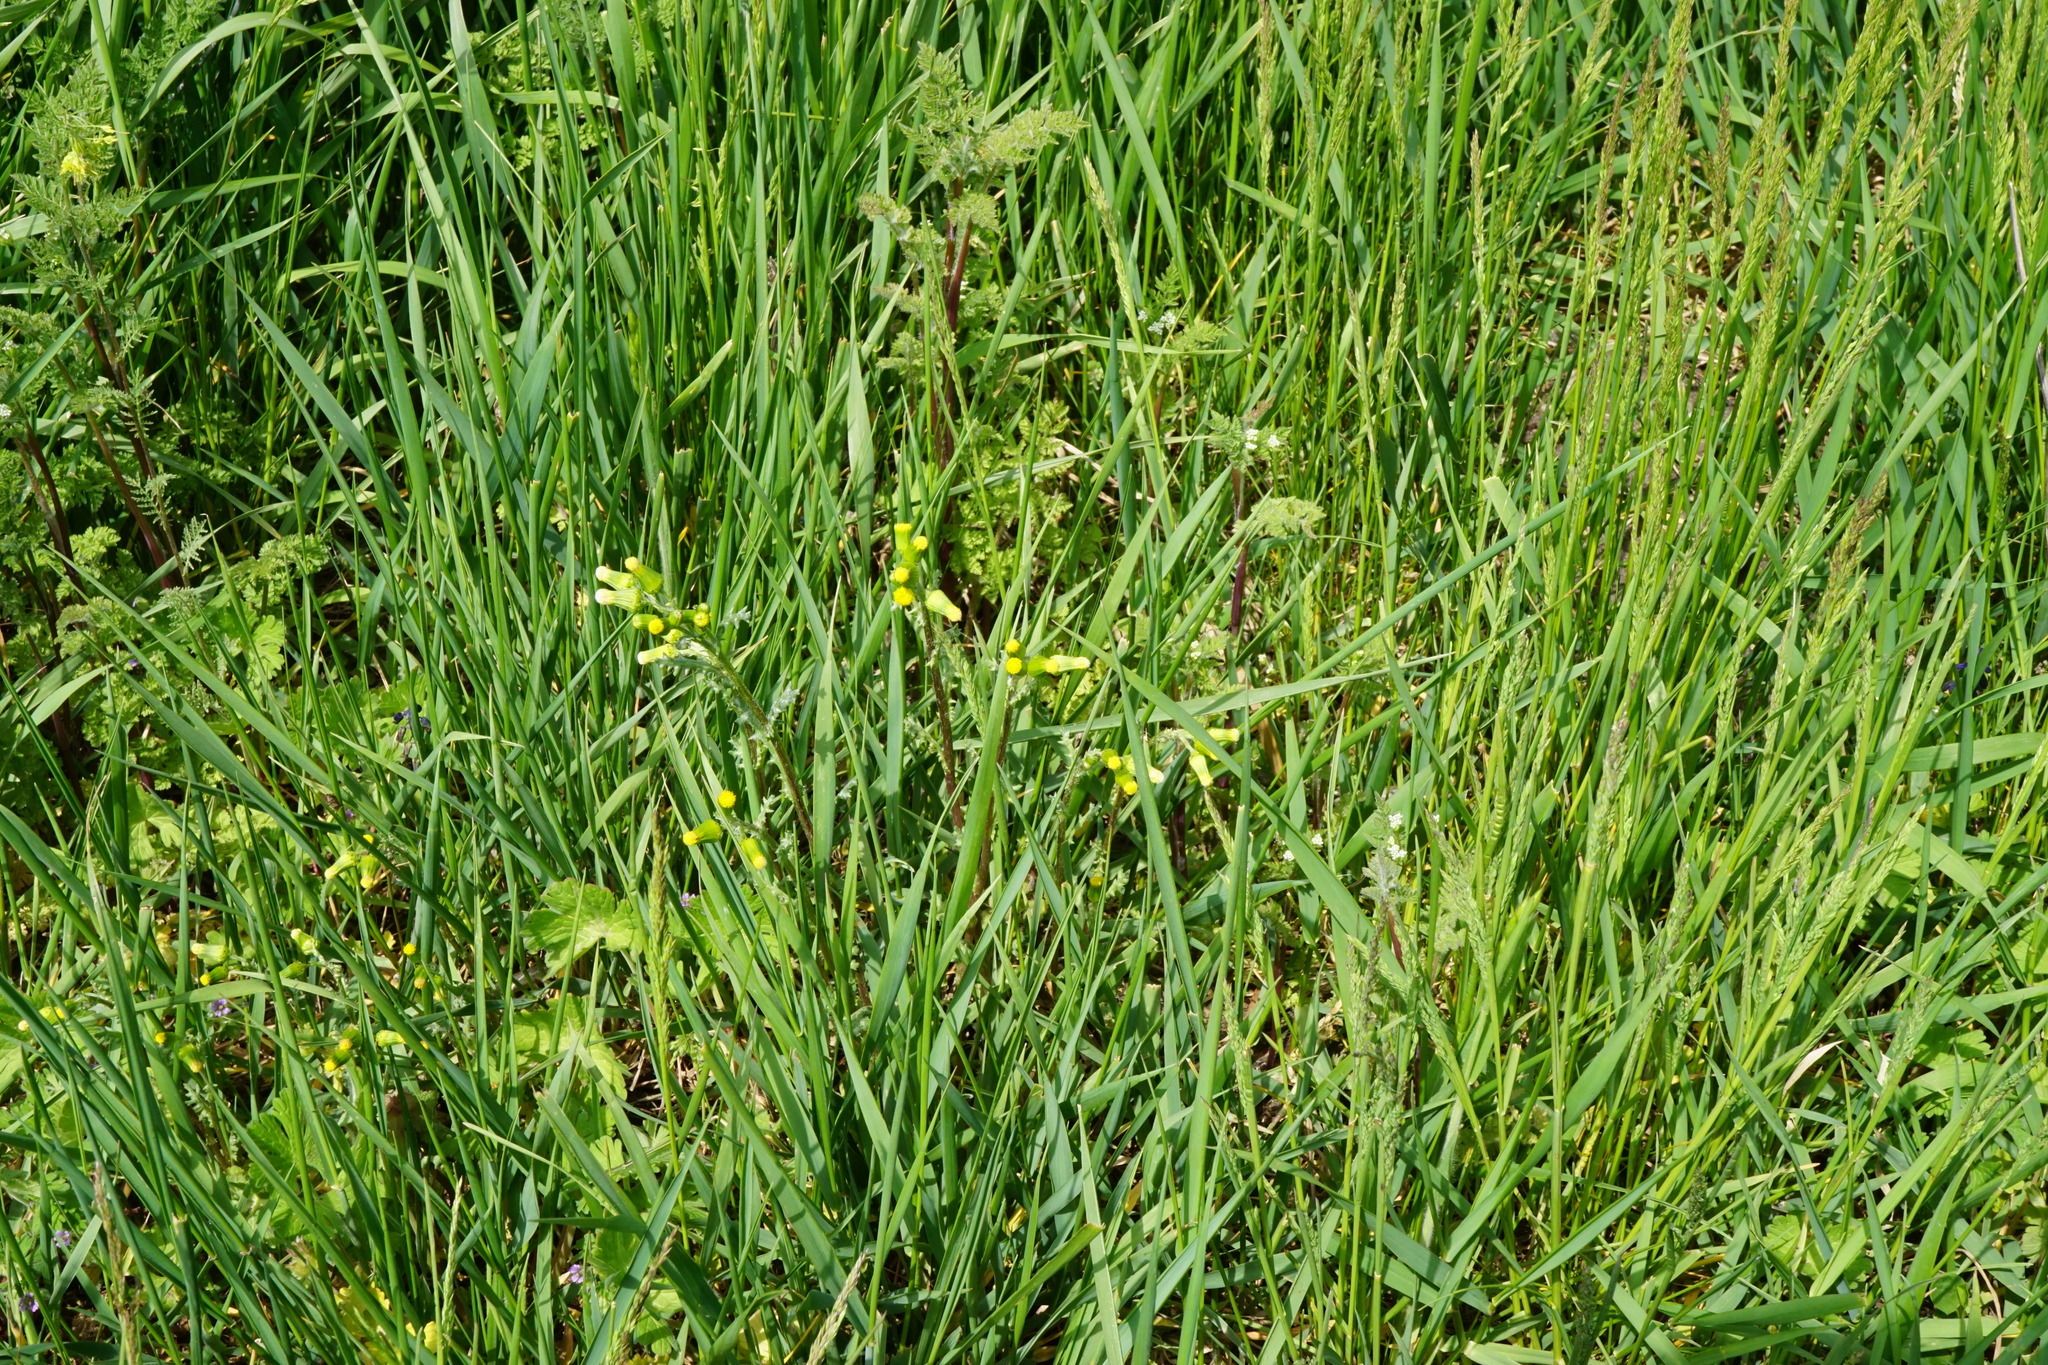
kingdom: Plantae
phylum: Tracheophyta
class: Magnoliopsida
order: Asterales
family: Asteraceae
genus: Senecio
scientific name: Senecio vulgaris
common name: Old-man-in-the-spring
